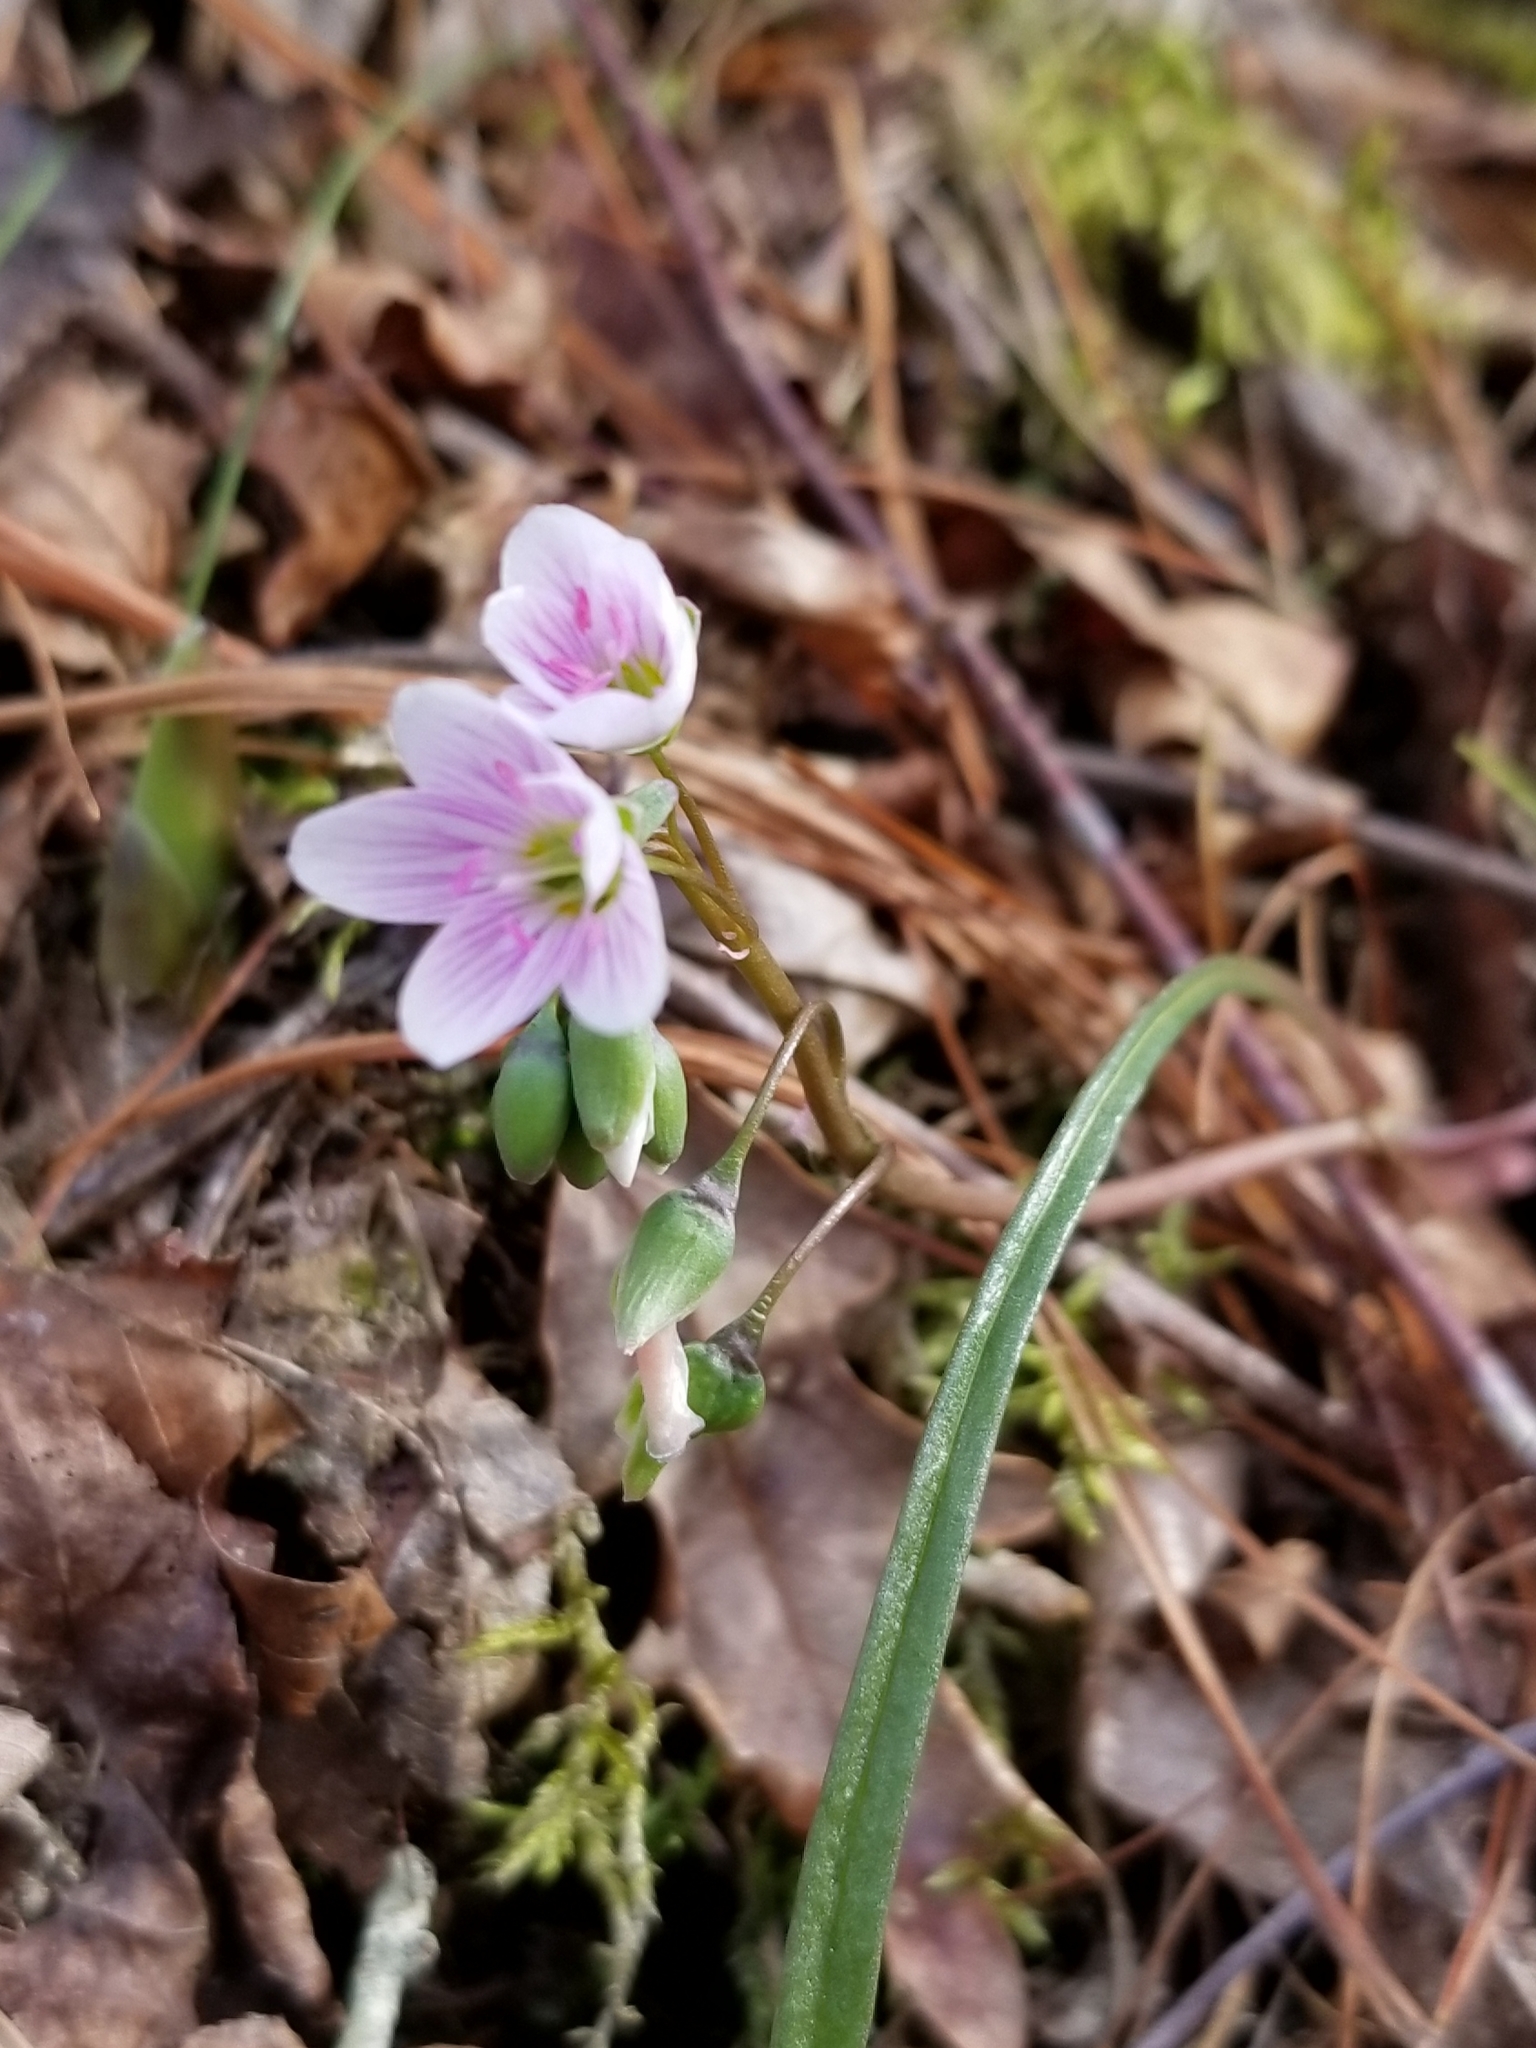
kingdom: Plantae
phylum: Tracheophyta
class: Magnoliopsida
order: Caryophyllales
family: Montiaceae
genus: Claytonia
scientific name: Claytonia virginica
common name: Virginia springbeauty
